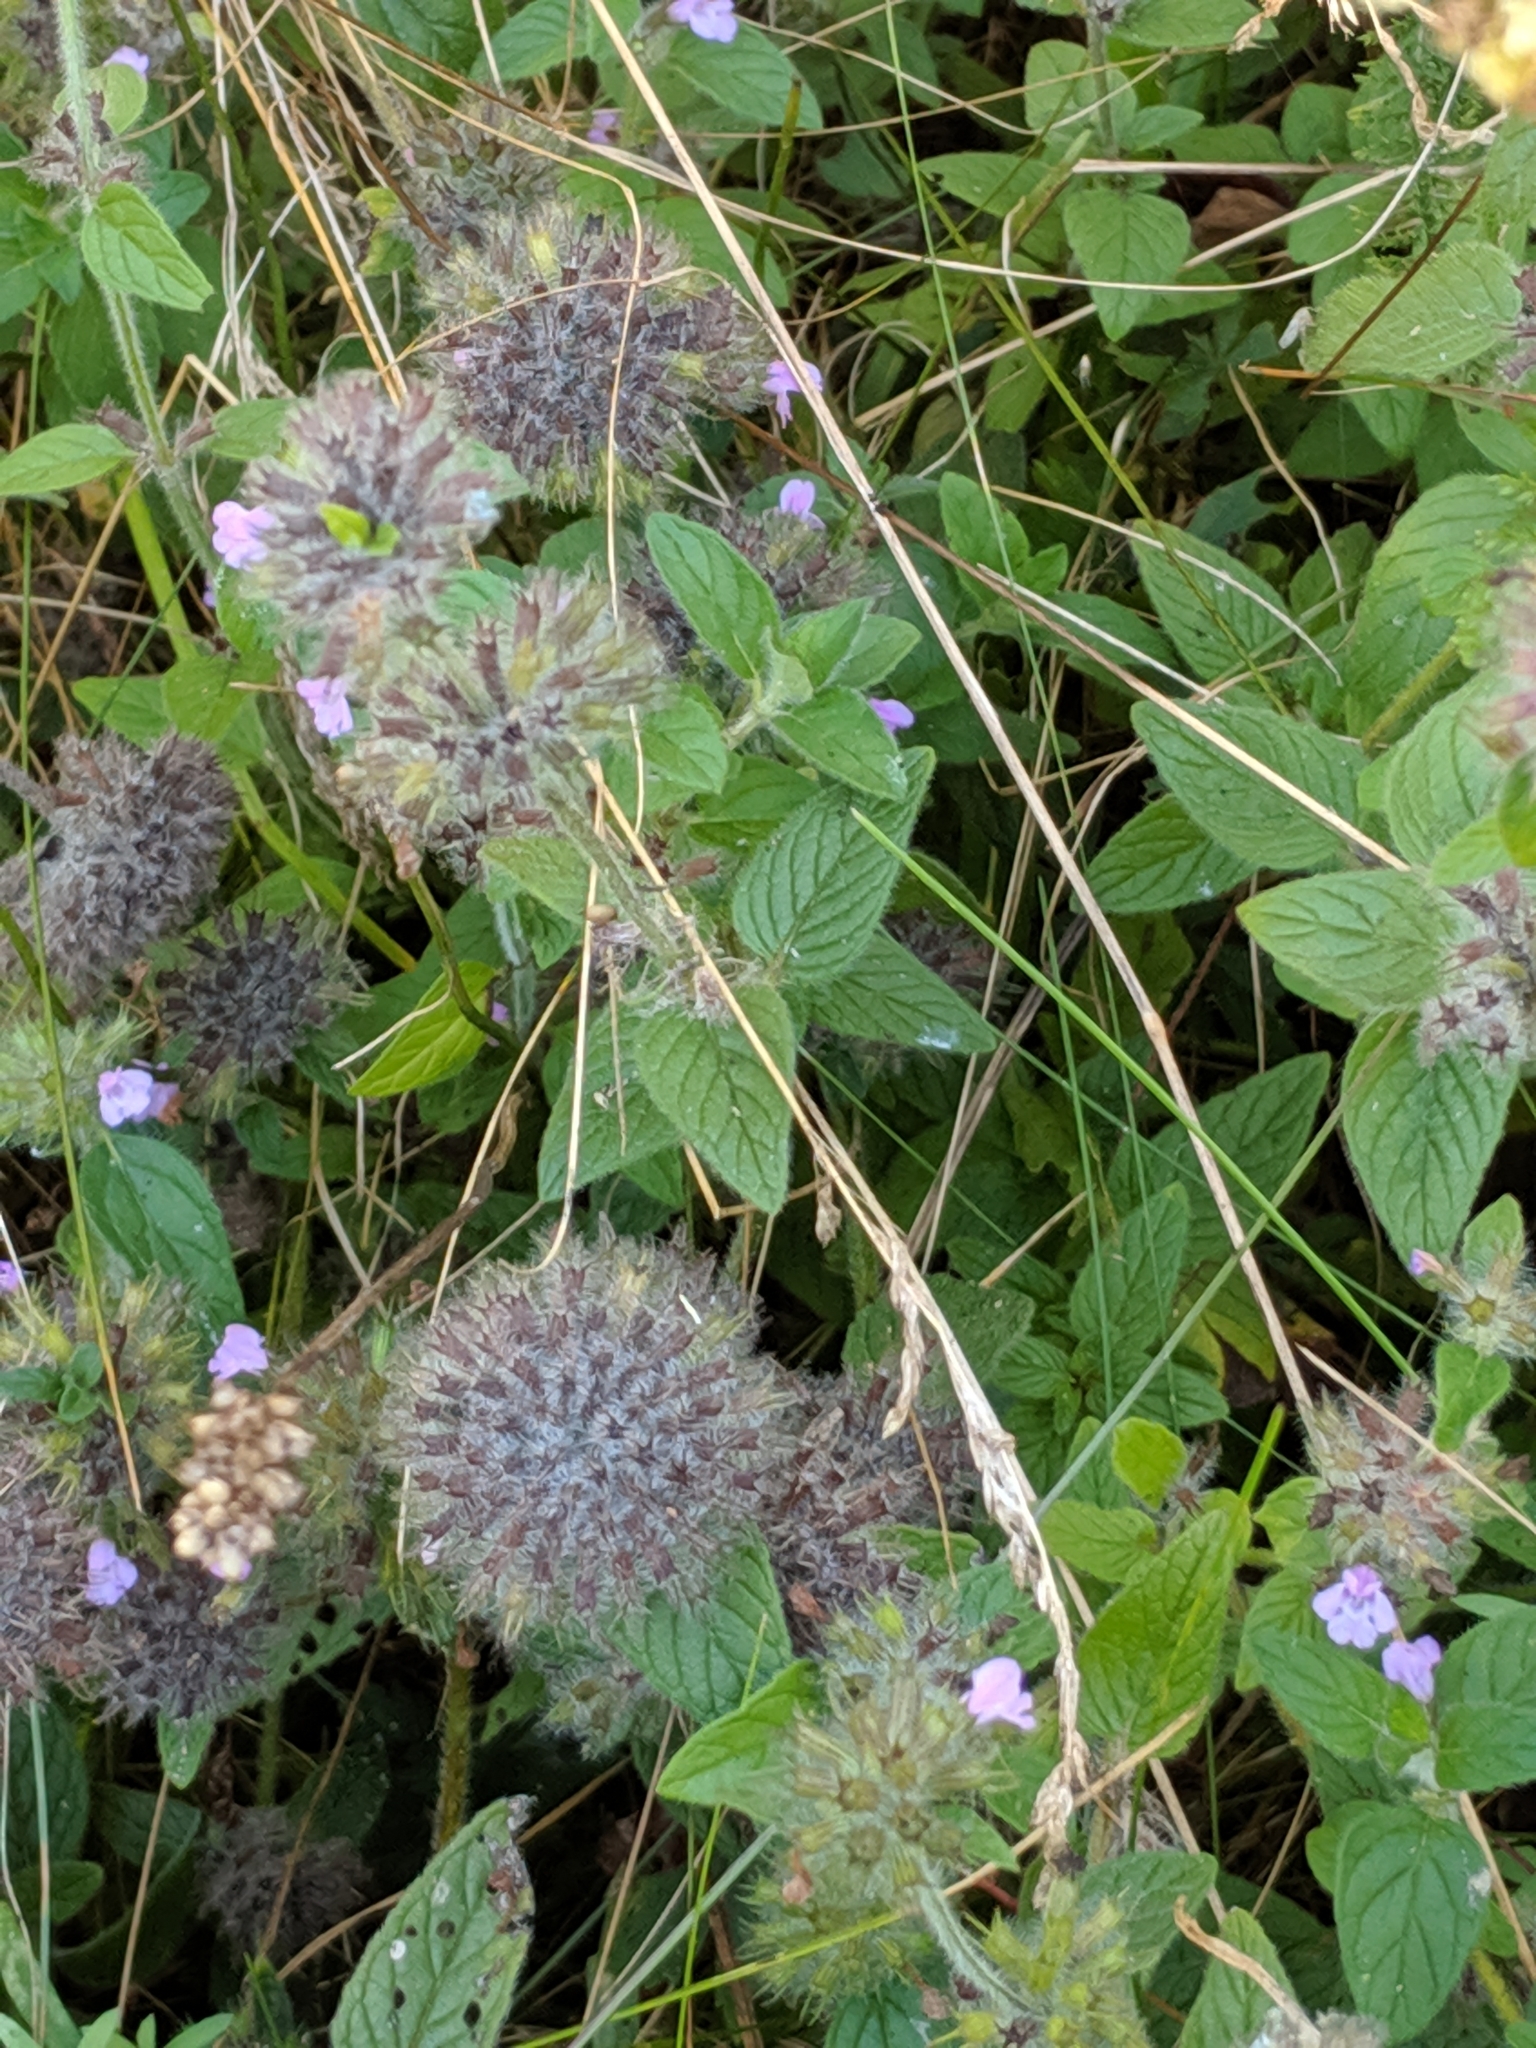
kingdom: Plantae
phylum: Tracheophyta
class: Magnoliopsida
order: Lamiales
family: Lamiaceae
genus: Clinopodium
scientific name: Clinopodium vulgare
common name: Wild basil
